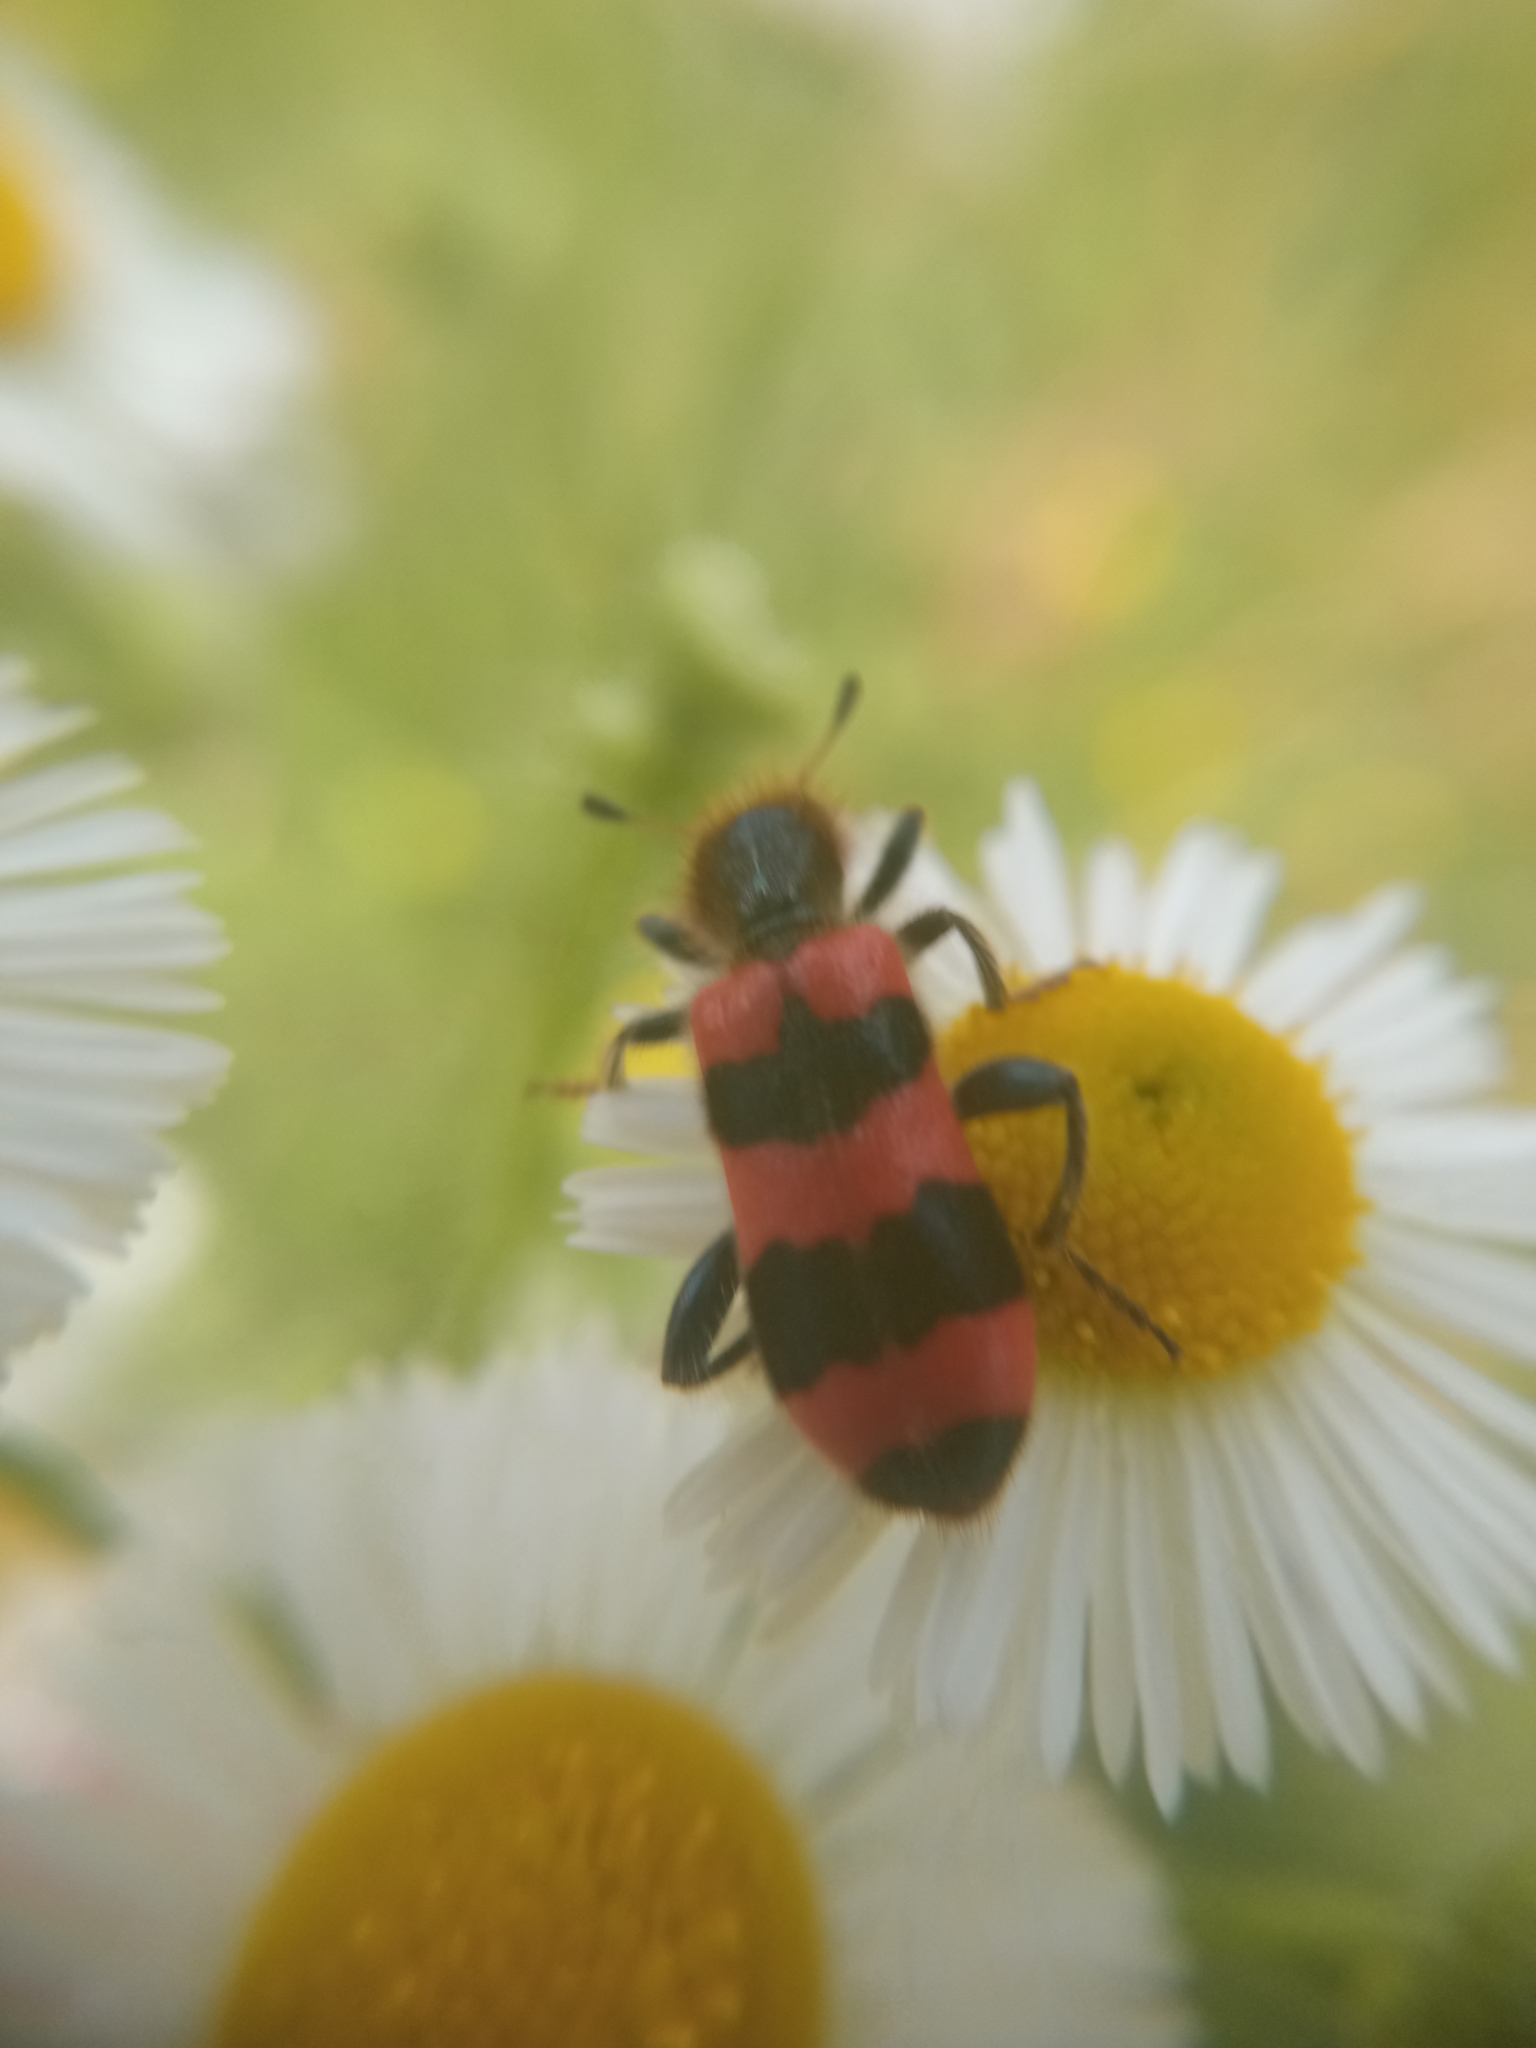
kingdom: Animalia
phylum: Arthropoda
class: Insecta
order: Coleoptera
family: Cleridae
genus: Trichodes
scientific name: Trichodes apiarius
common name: Bee-eating beetle
